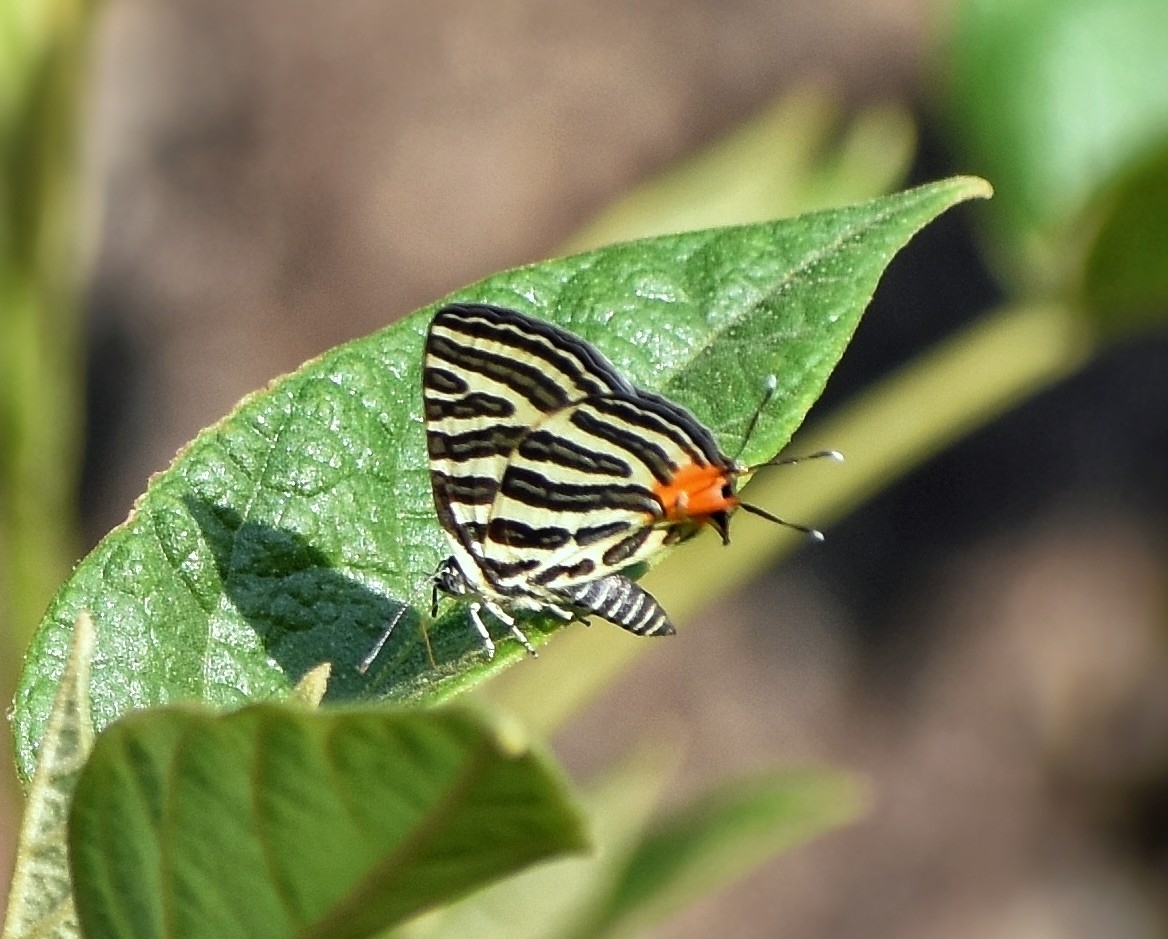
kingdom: Animalia
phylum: Arthropoda
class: Insecta
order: Lepidoptera
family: Lycaenidae
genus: Cigaritis
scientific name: Cigaritis lohita
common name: Long-banded silverline
